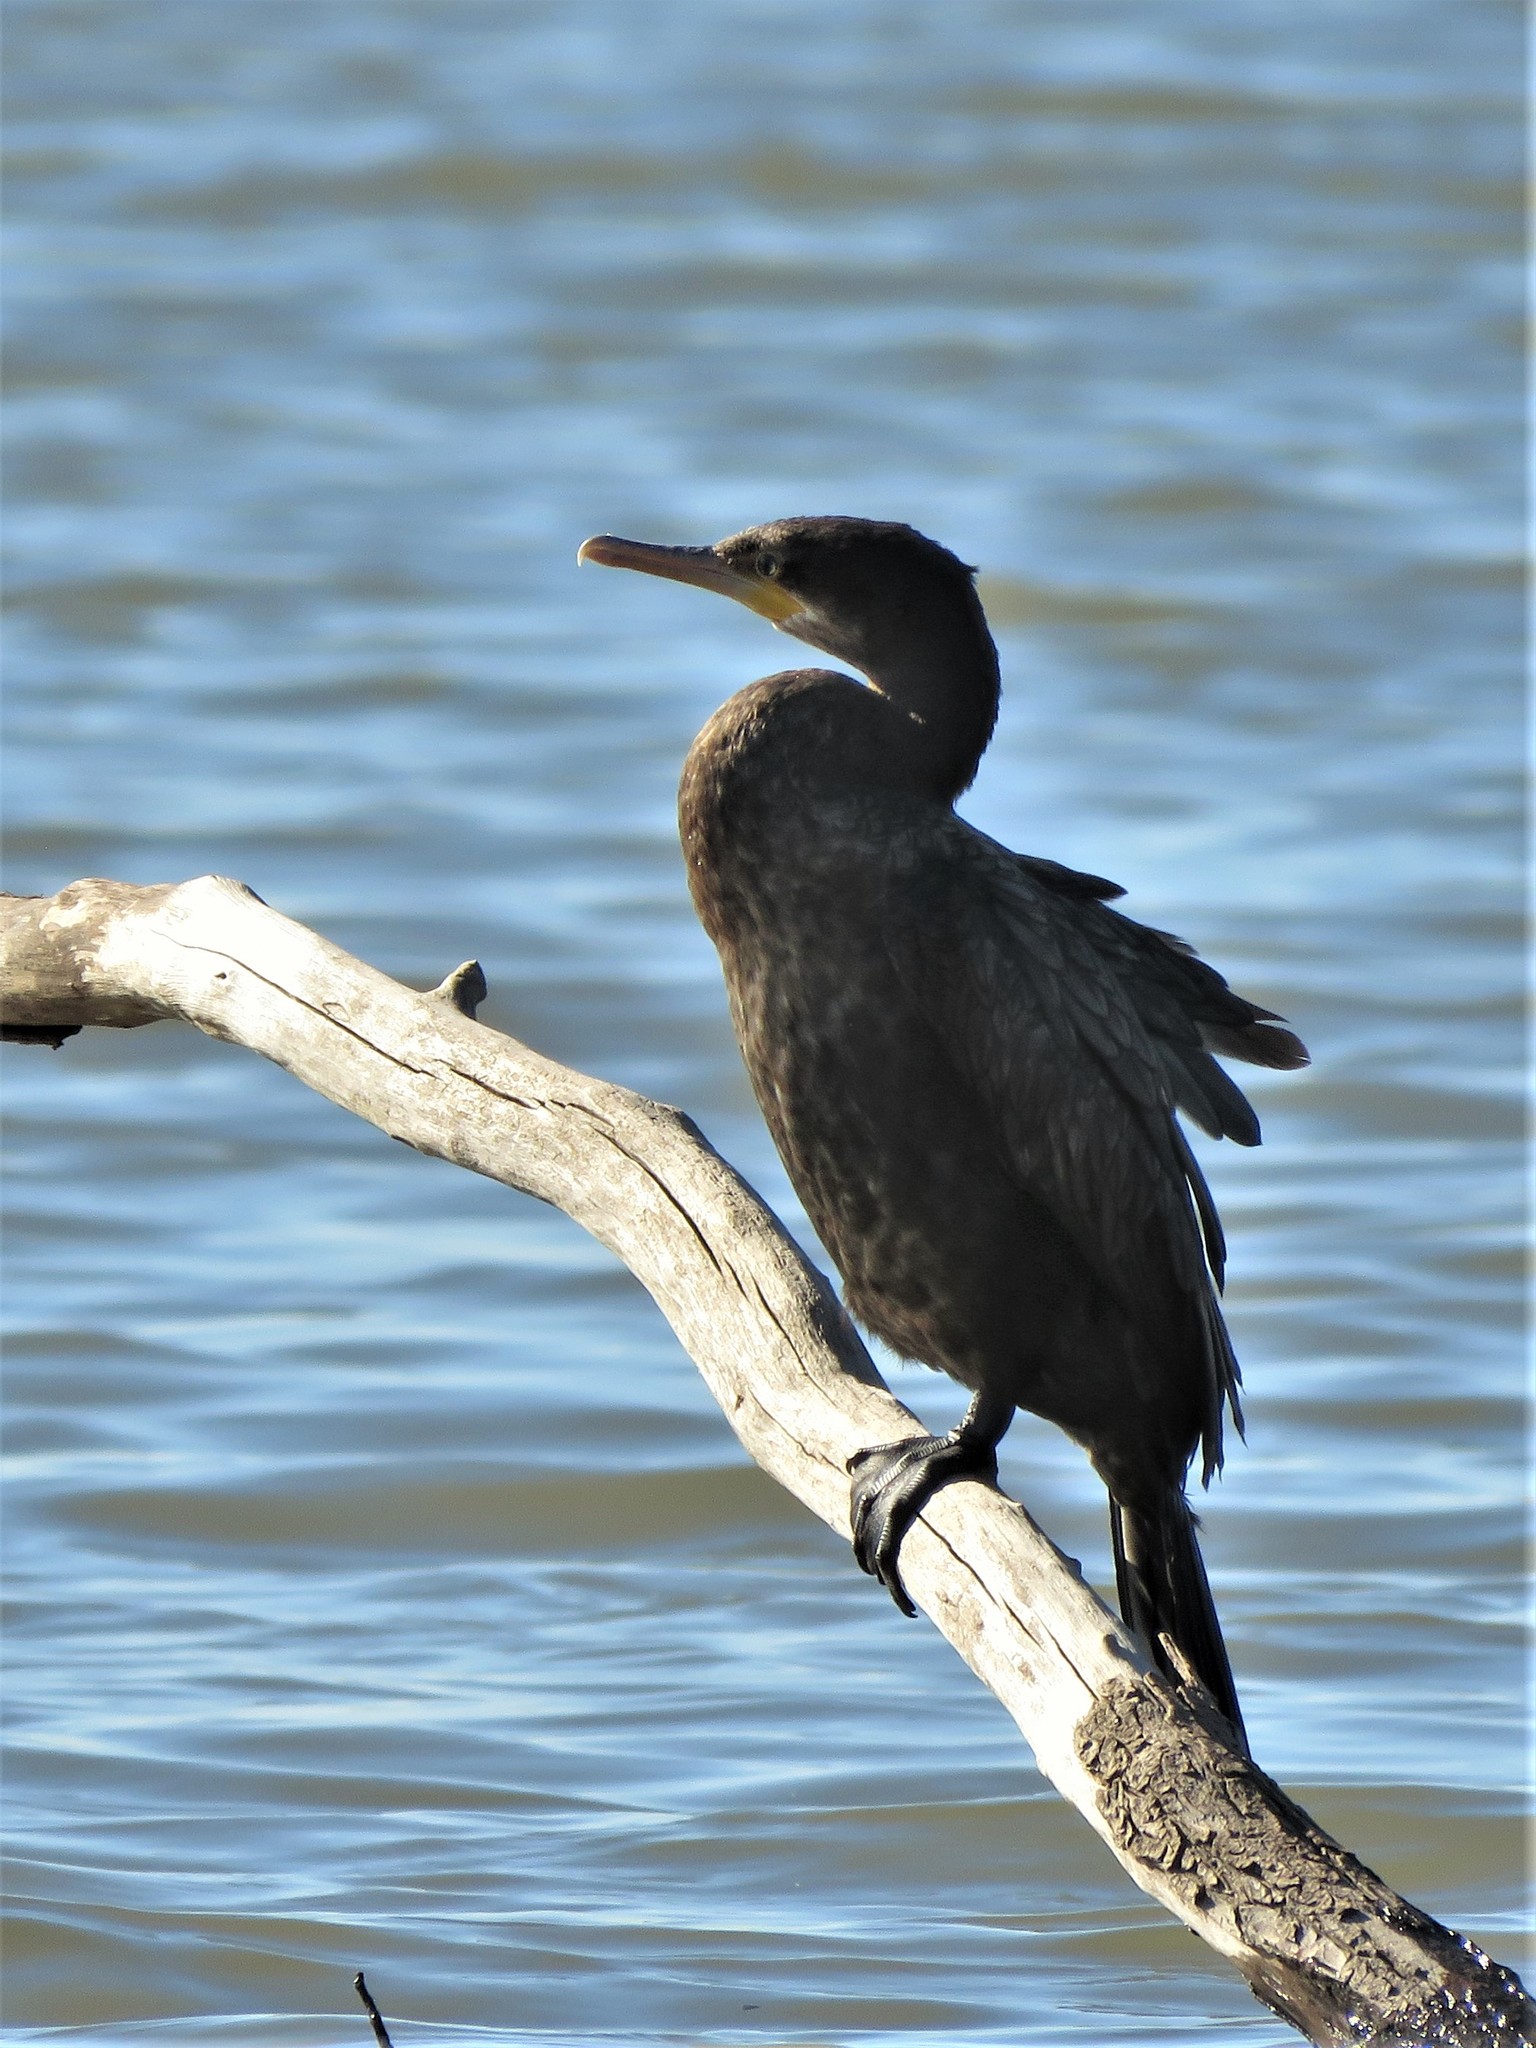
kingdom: Animalia
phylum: Chordata
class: Aves
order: Suliformes
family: Phalacrocoracidae
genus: Phalacrocorax
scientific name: Phalacrocorax brasilianus
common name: Neotropic cormorant
